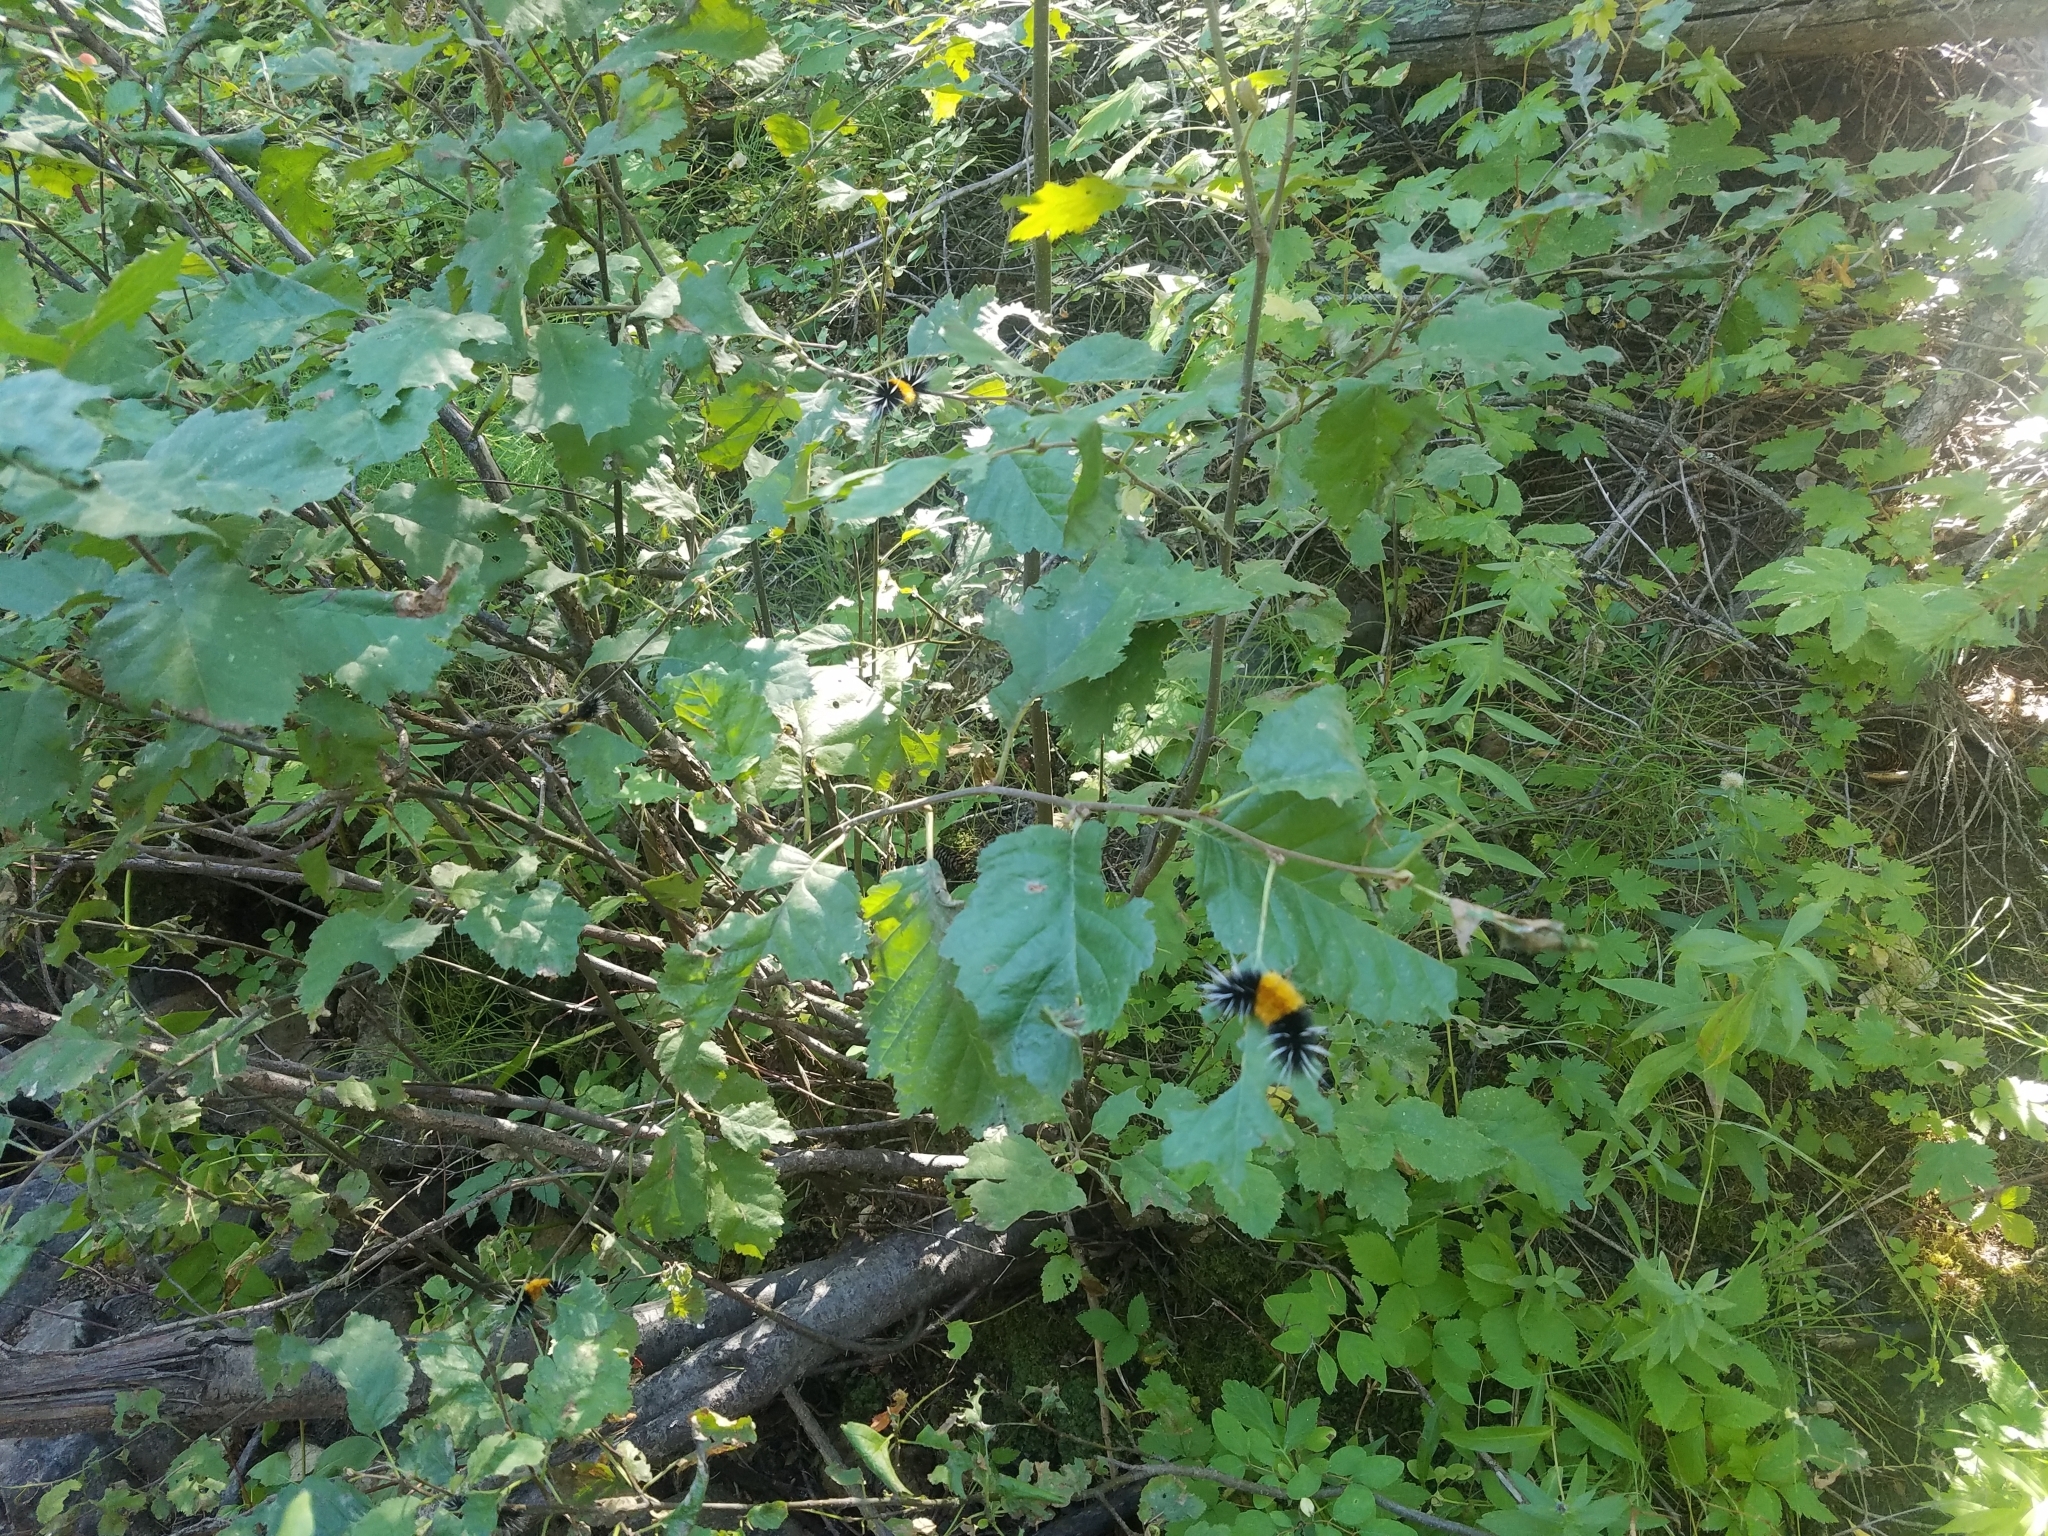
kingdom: Animalia
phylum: Arthropoda
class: Insecta
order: Lepidoptera
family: Erebidae
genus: Lophocampa
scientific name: Lophocampa maculata
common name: Spotted tussock moth
